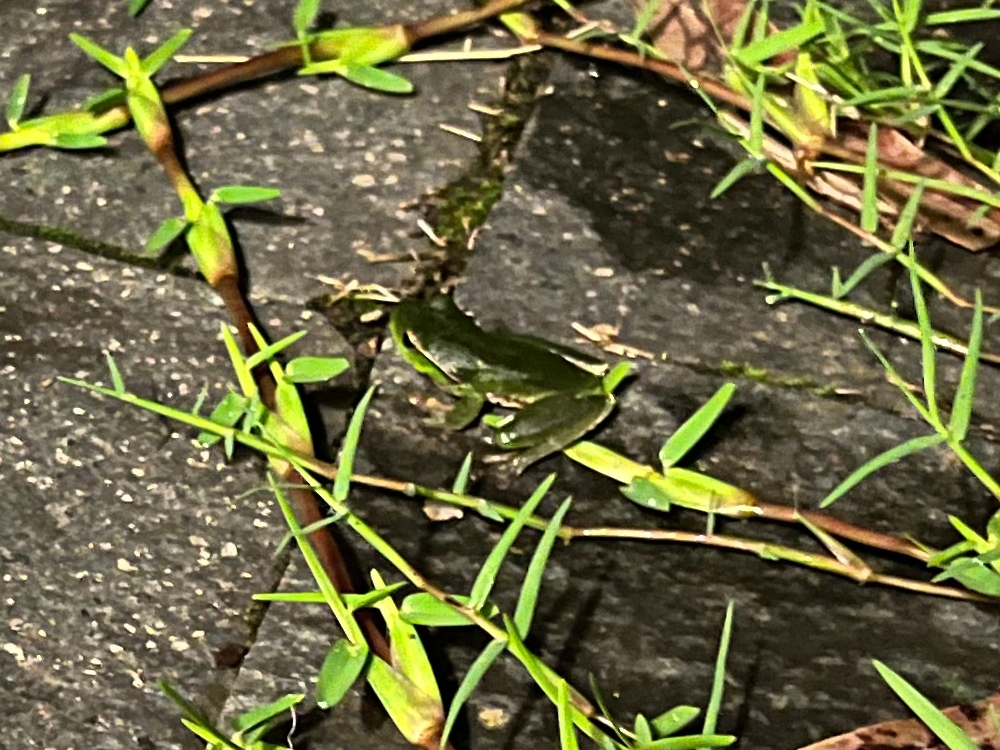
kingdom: Animalia
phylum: Chordata
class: Amphibia
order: Anura
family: Pelodryadidae
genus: Ranoidea
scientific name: Ranoidea phyllochroa
